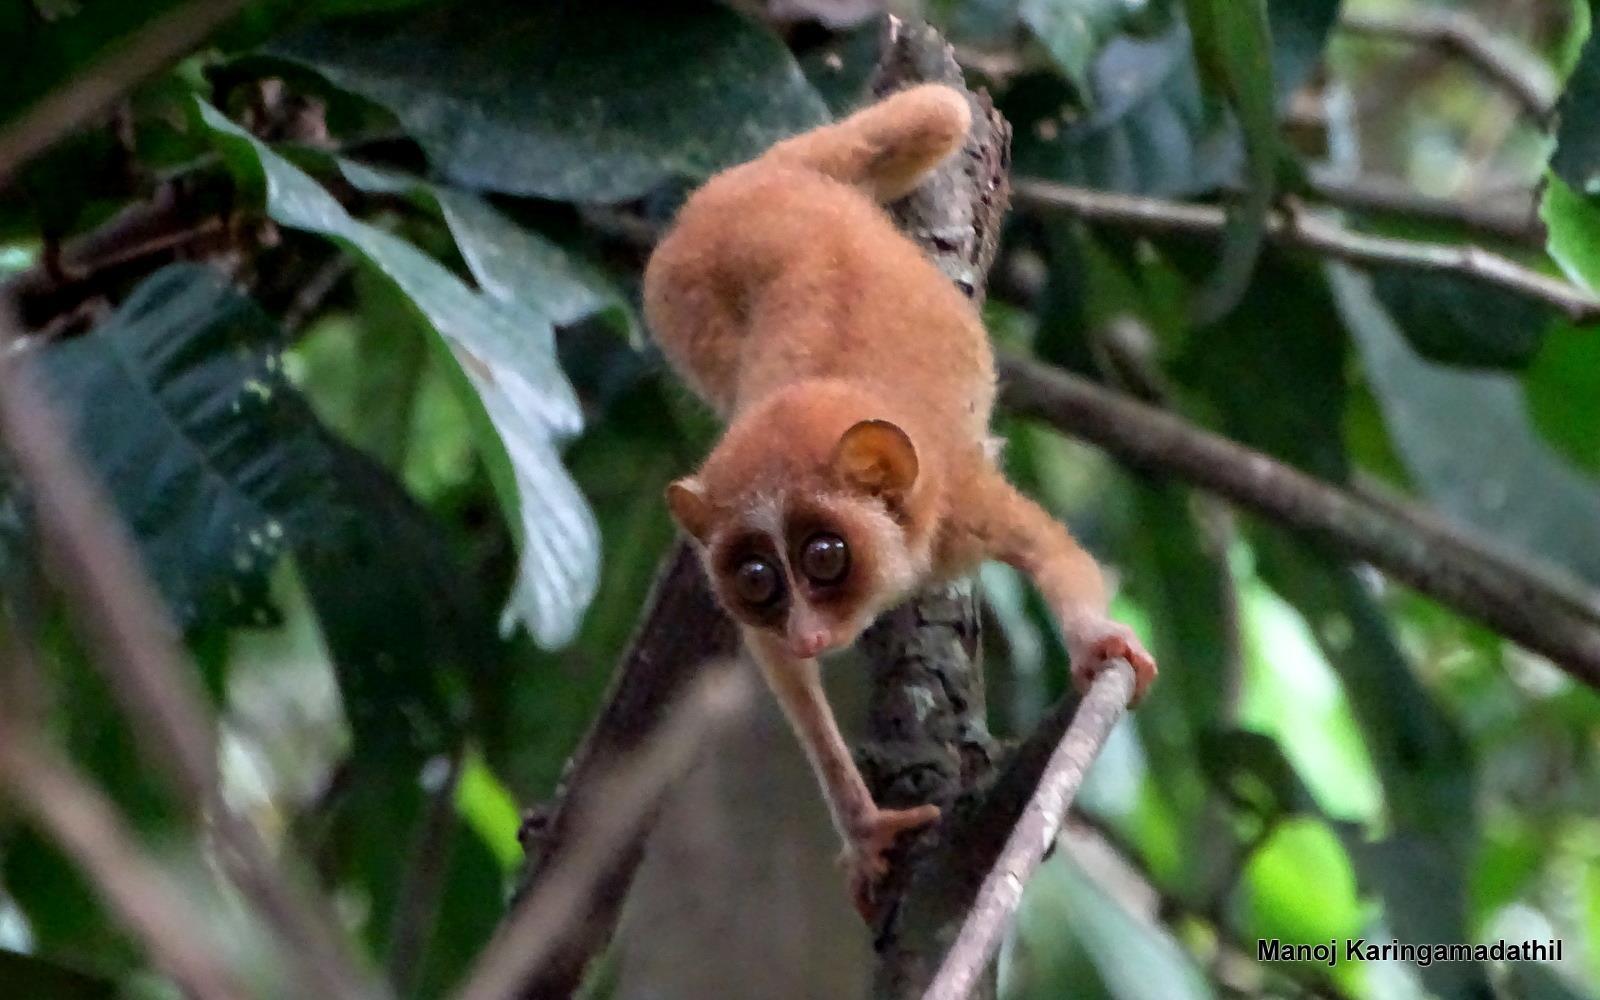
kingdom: Animalia
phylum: Chordata
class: Mammalia
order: Primates
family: Lorisidae
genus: Loris
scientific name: Loris lydekkerianus
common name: Gray slender loris
